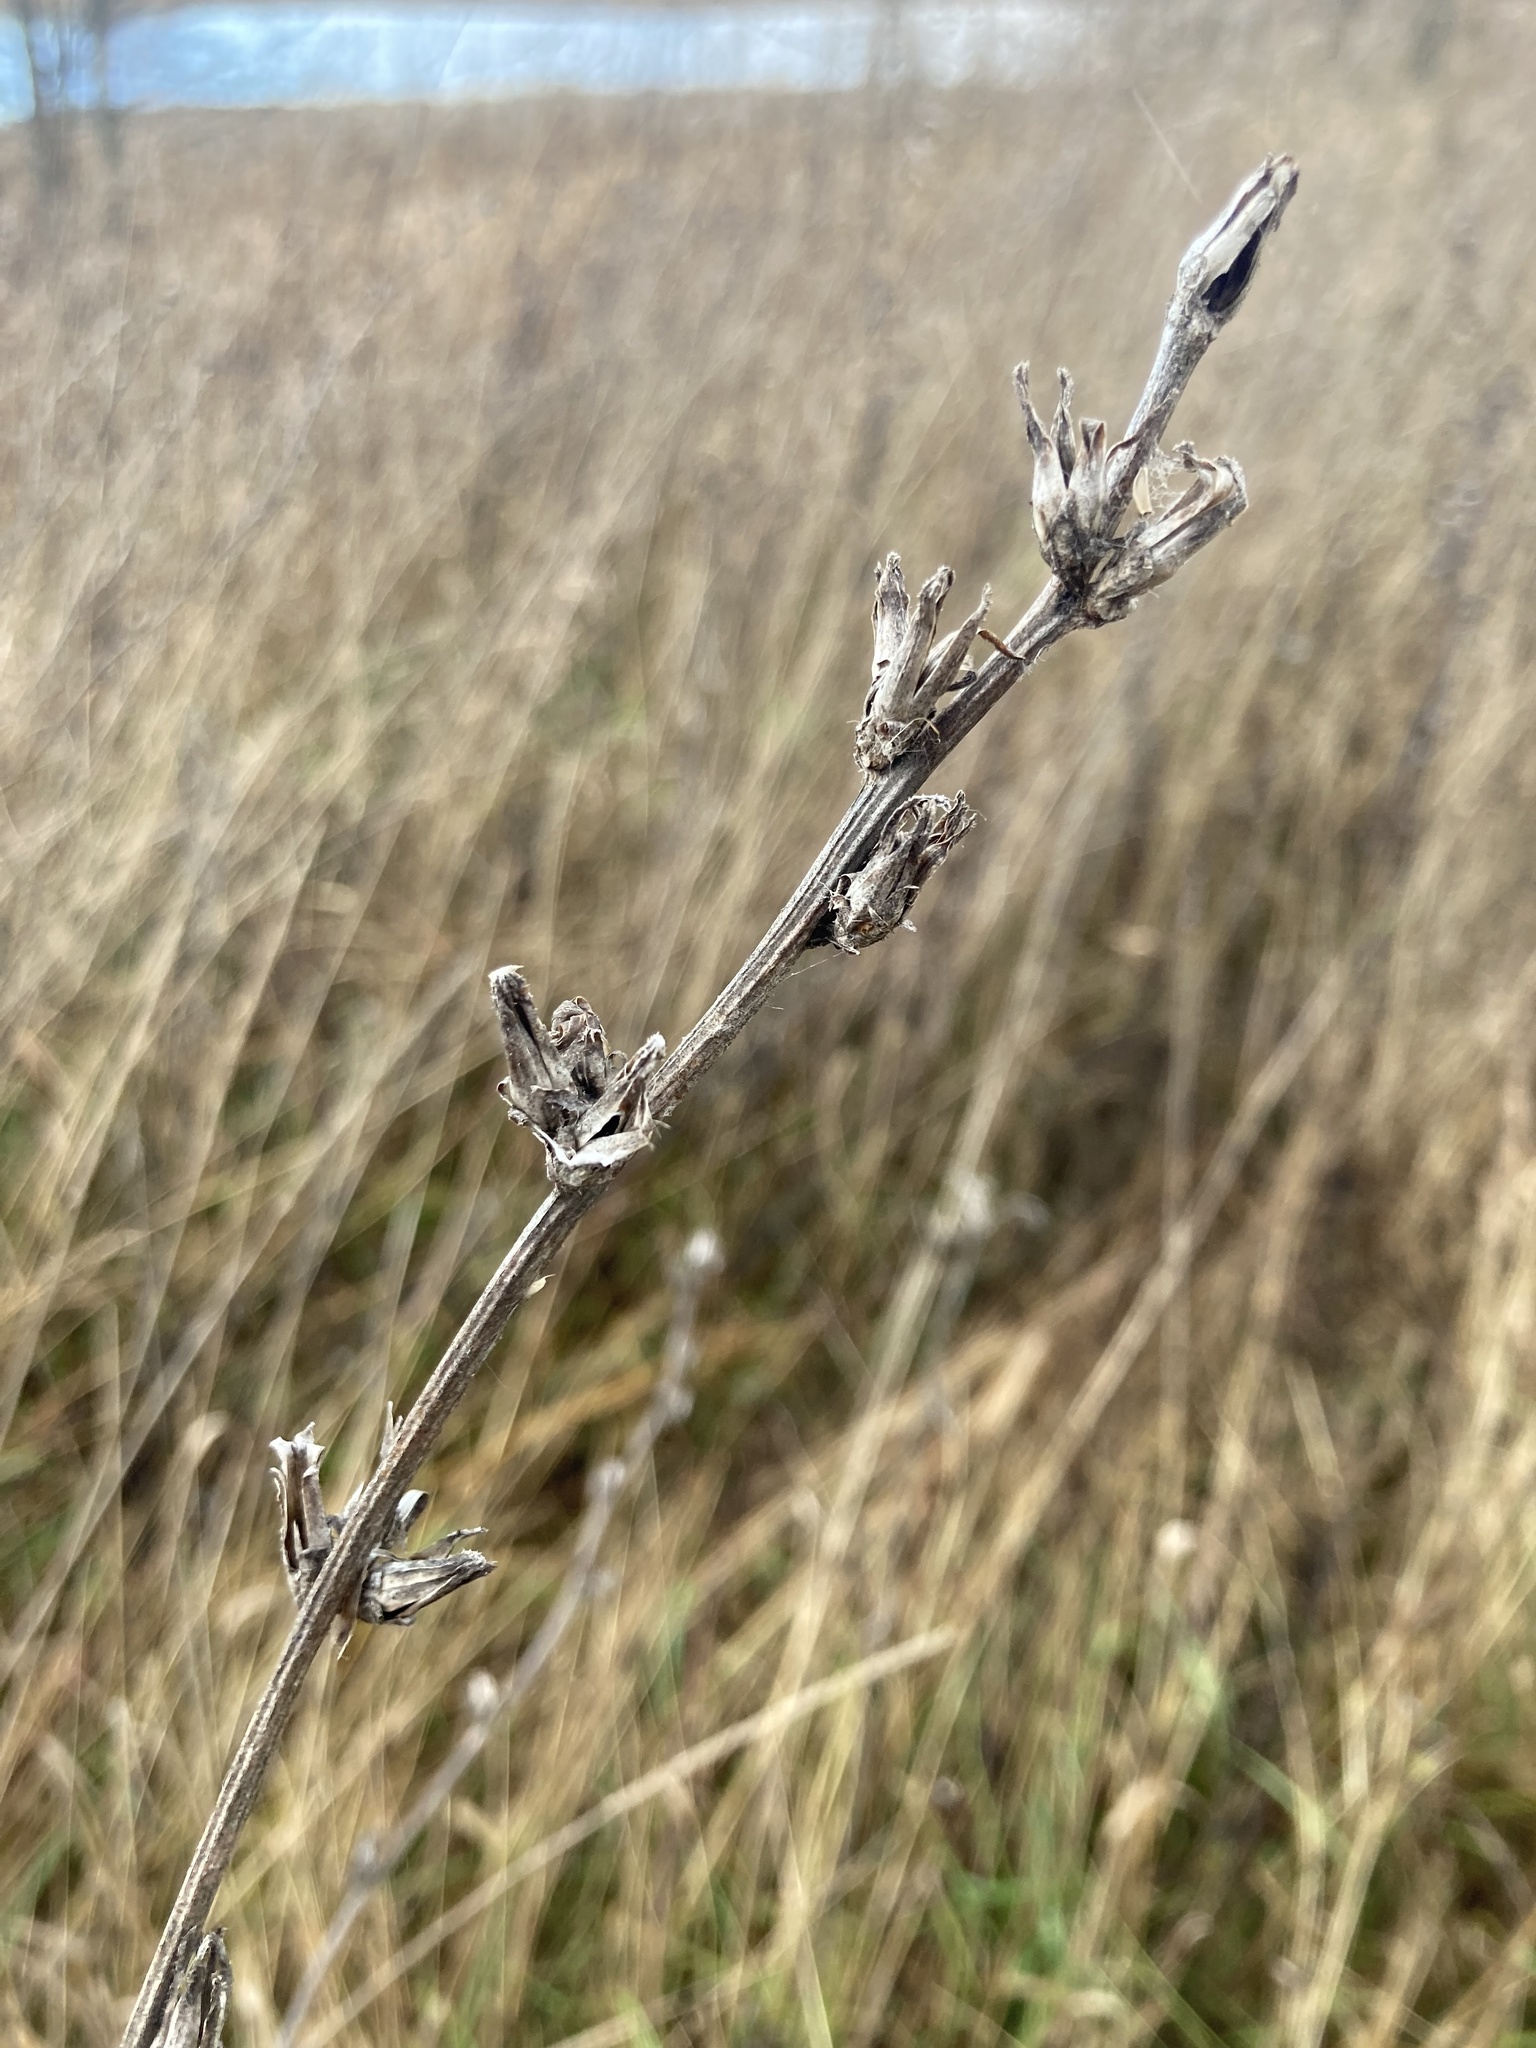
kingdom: Plantae
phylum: Tracheophyta
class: Magnoliopsida
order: Asterales
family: Asteraceae
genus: Cichorium
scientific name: Cichorium intybus
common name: Chicory
